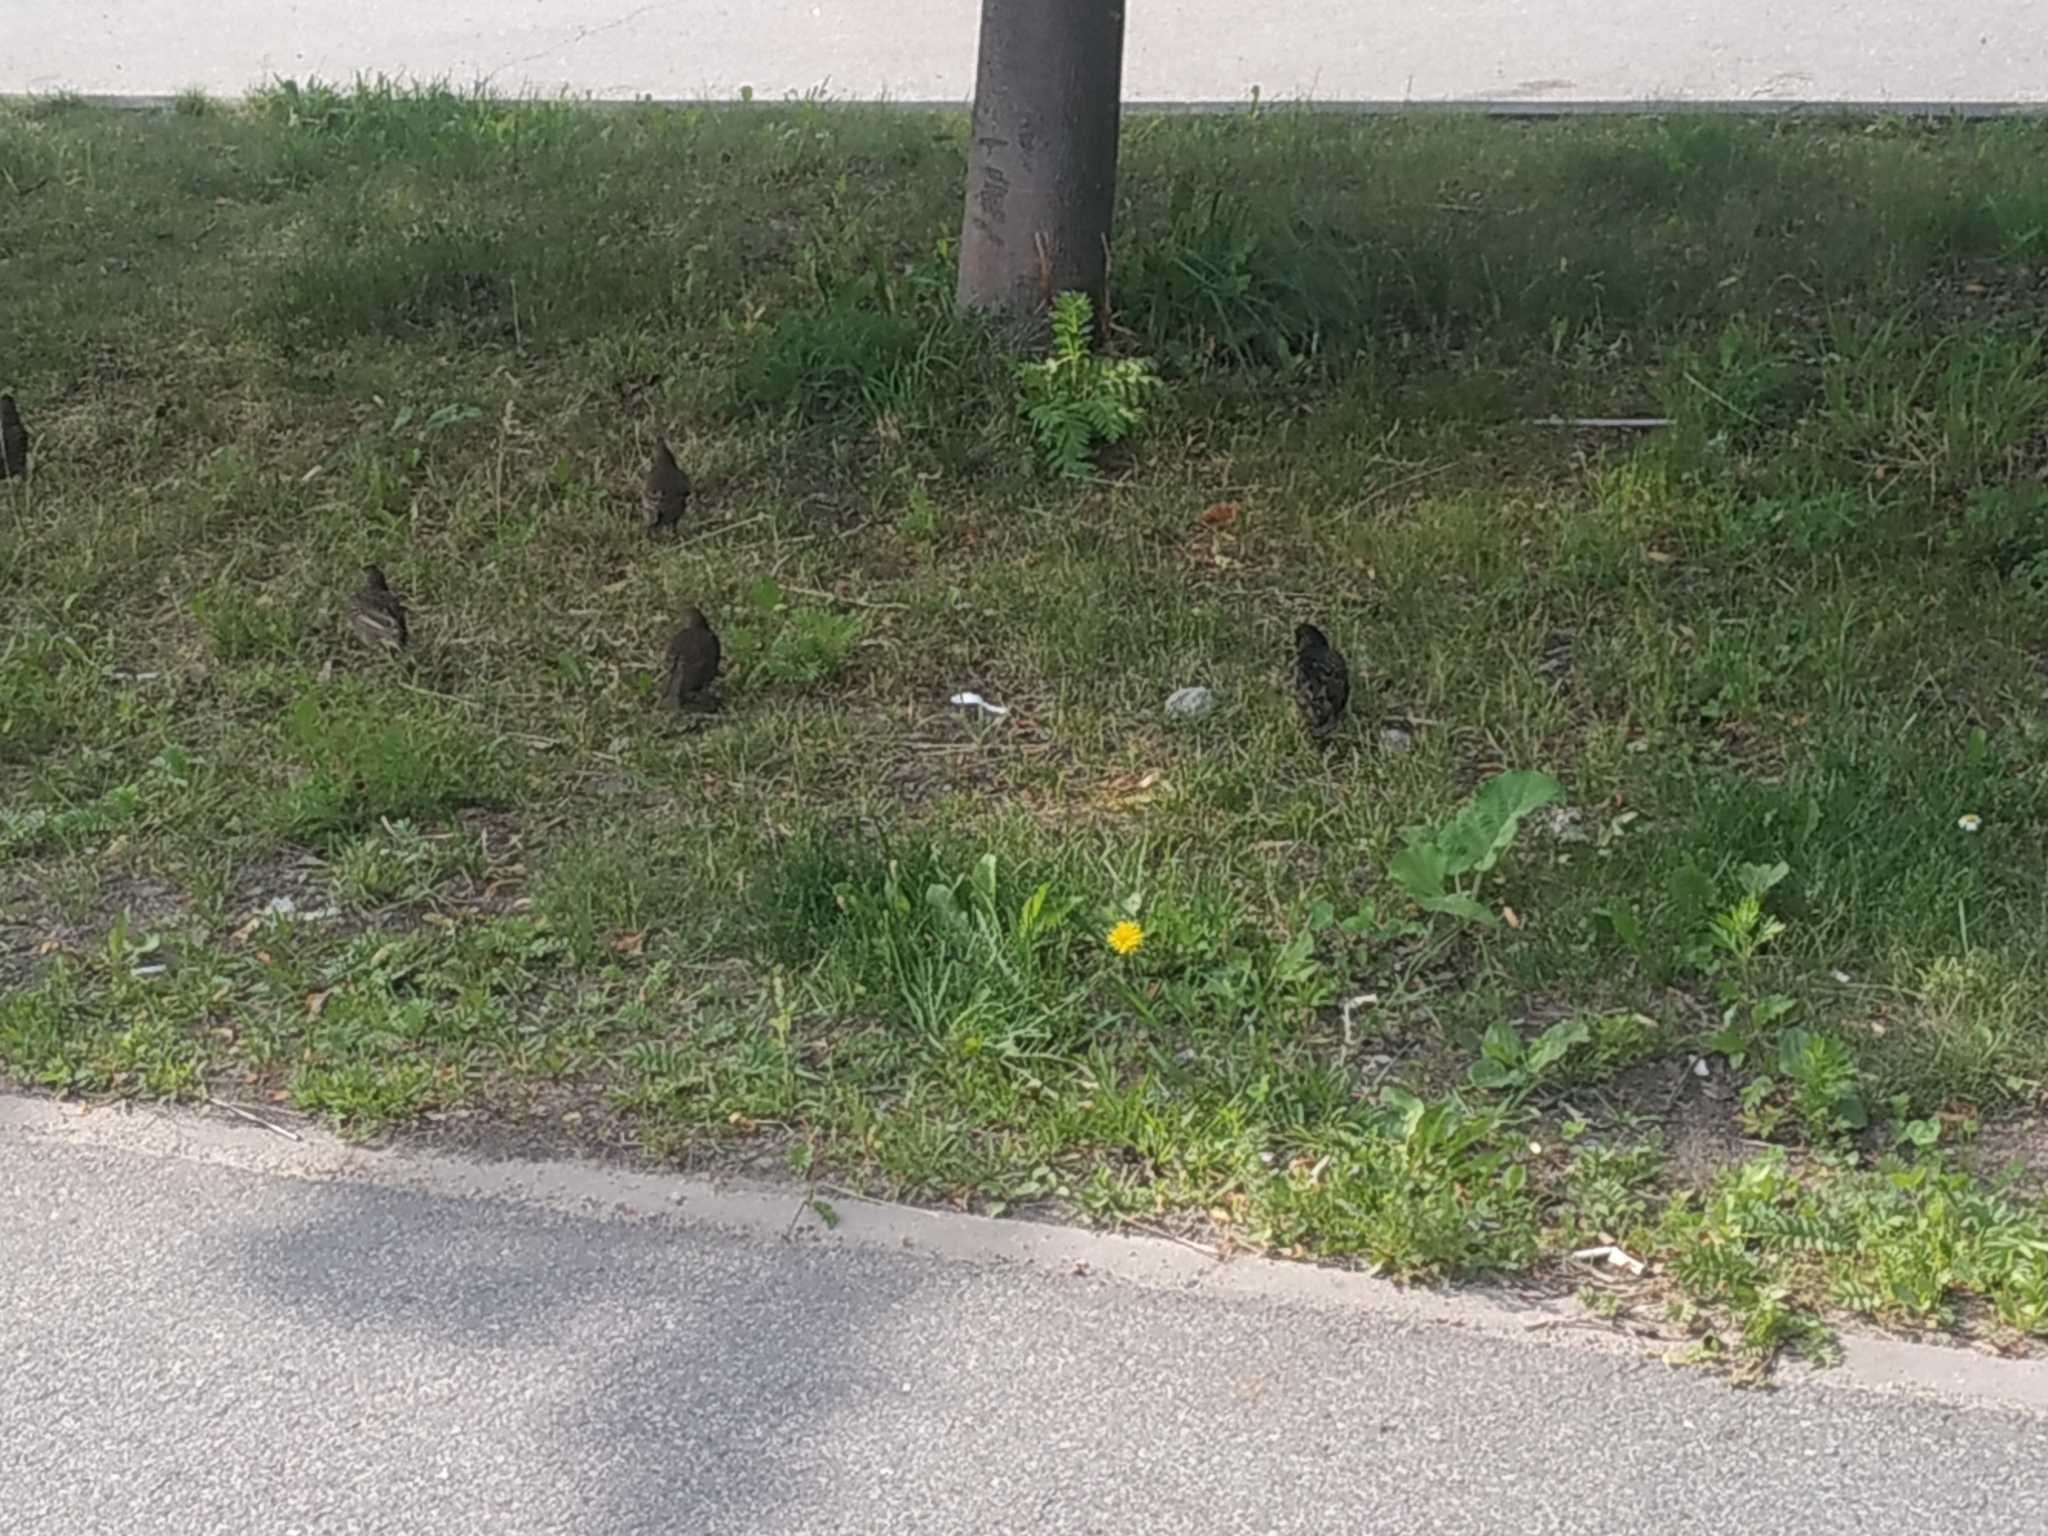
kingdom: Animalia
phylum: Chordata
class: Aves
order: Passeriformes
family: Sturnidae
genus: Sturnus
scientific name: Sturnus vulgaris
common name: Common starling
